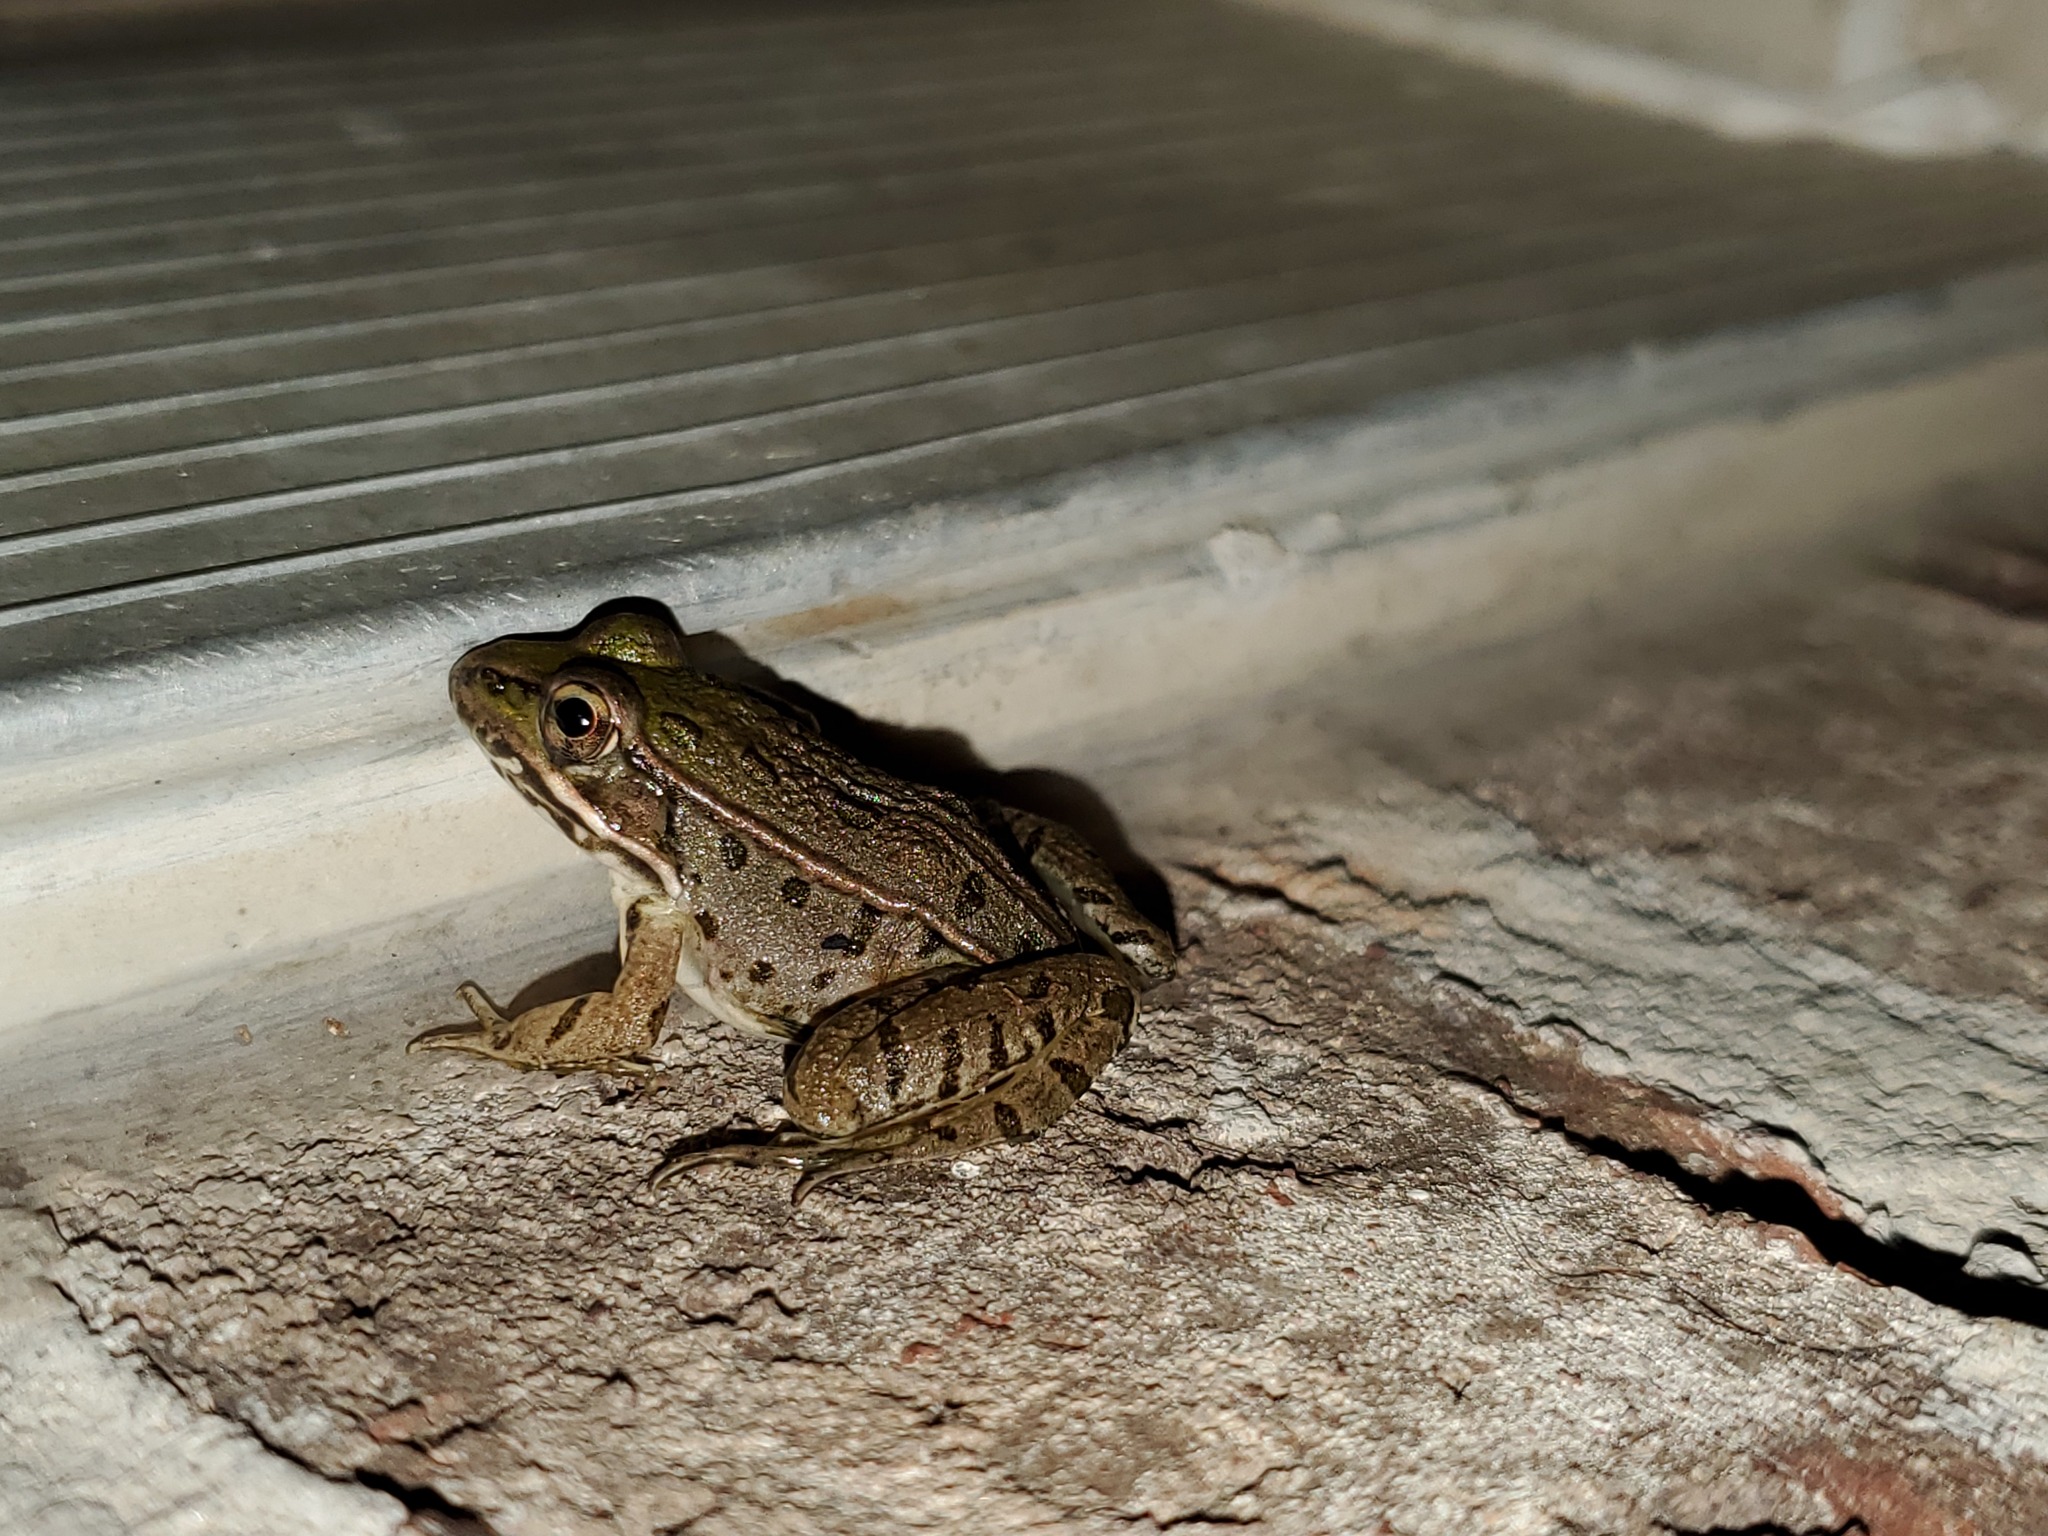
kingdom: Animalia
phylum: Chordata
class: Amphibia
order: Anura
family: Ranidae
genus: Lithobates
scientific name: Lithobates sphenocephalus
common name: Southern leopard frog
